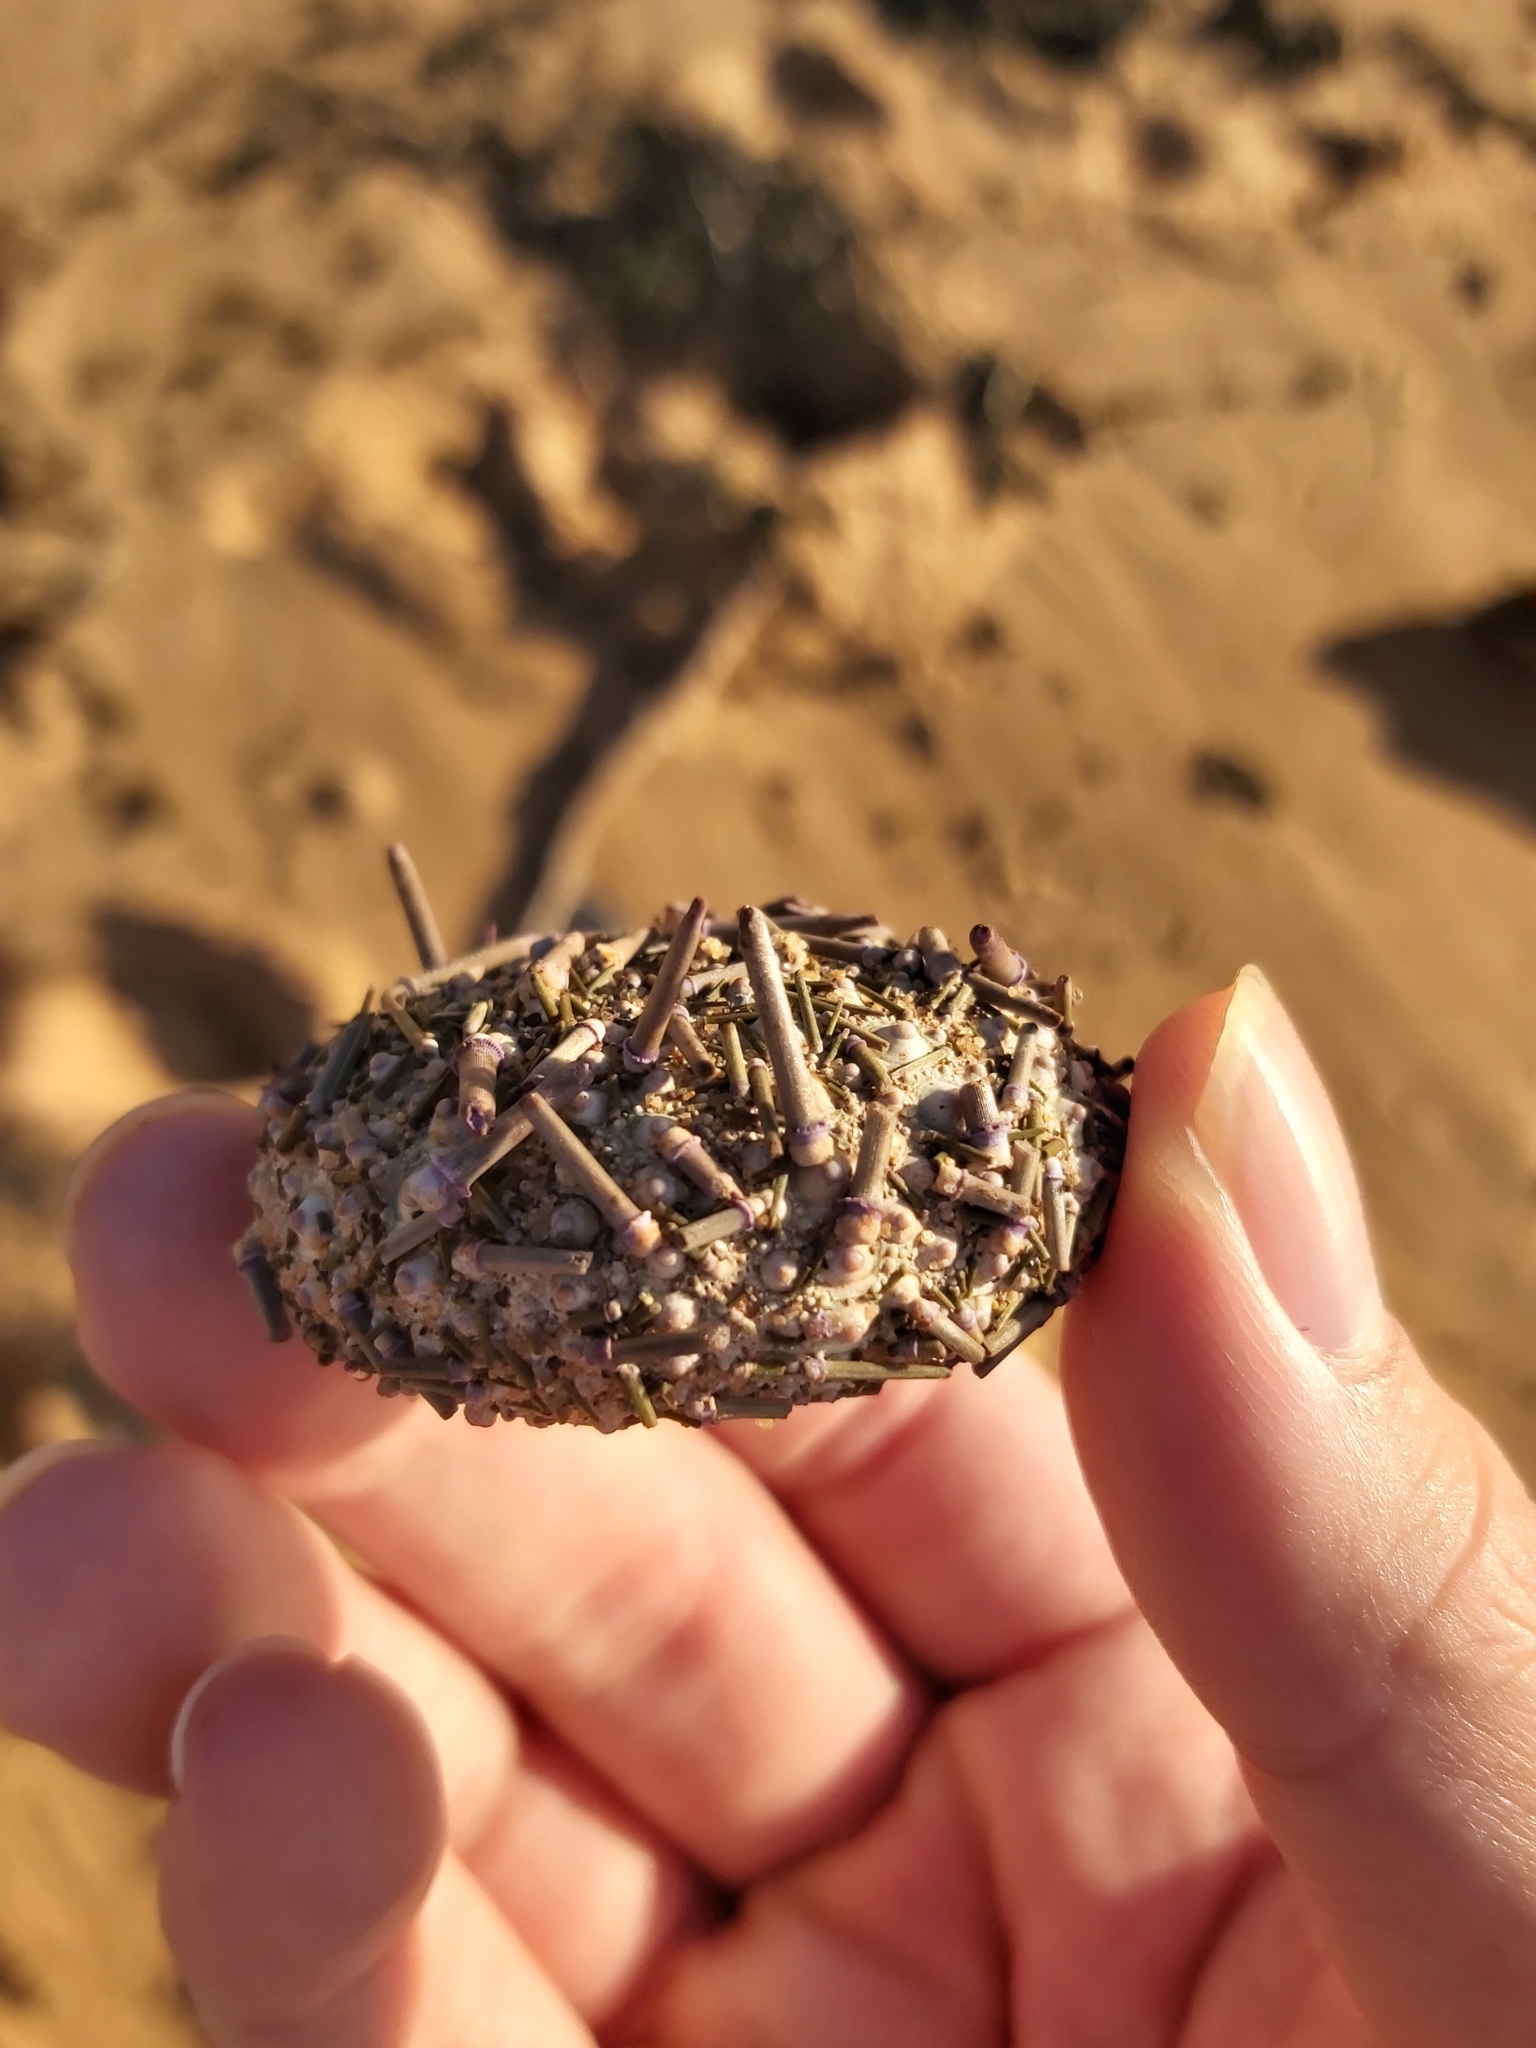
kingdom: Animalia
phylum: Echinodermata
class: Echinoidea
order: Camarodonta
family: Echinometridae
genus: Heliocidaris
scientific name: Heliocidaris erythrogramma
